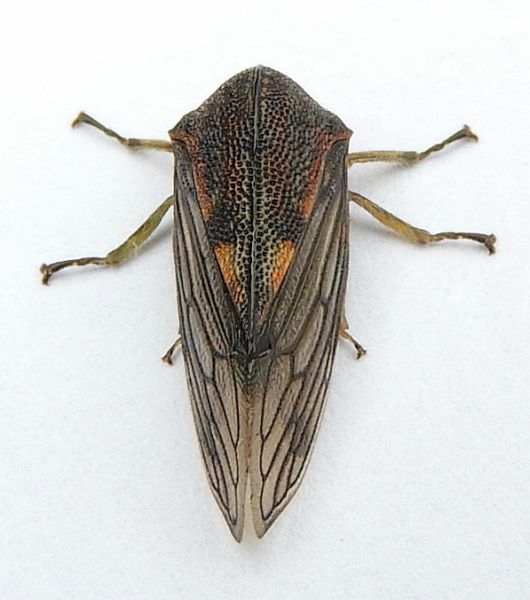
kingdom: Animalia
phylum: Arthropoda
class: Insecta
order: Hemiptera
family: Membracidae
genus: Platycotis
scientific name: Platycotis vittatus
